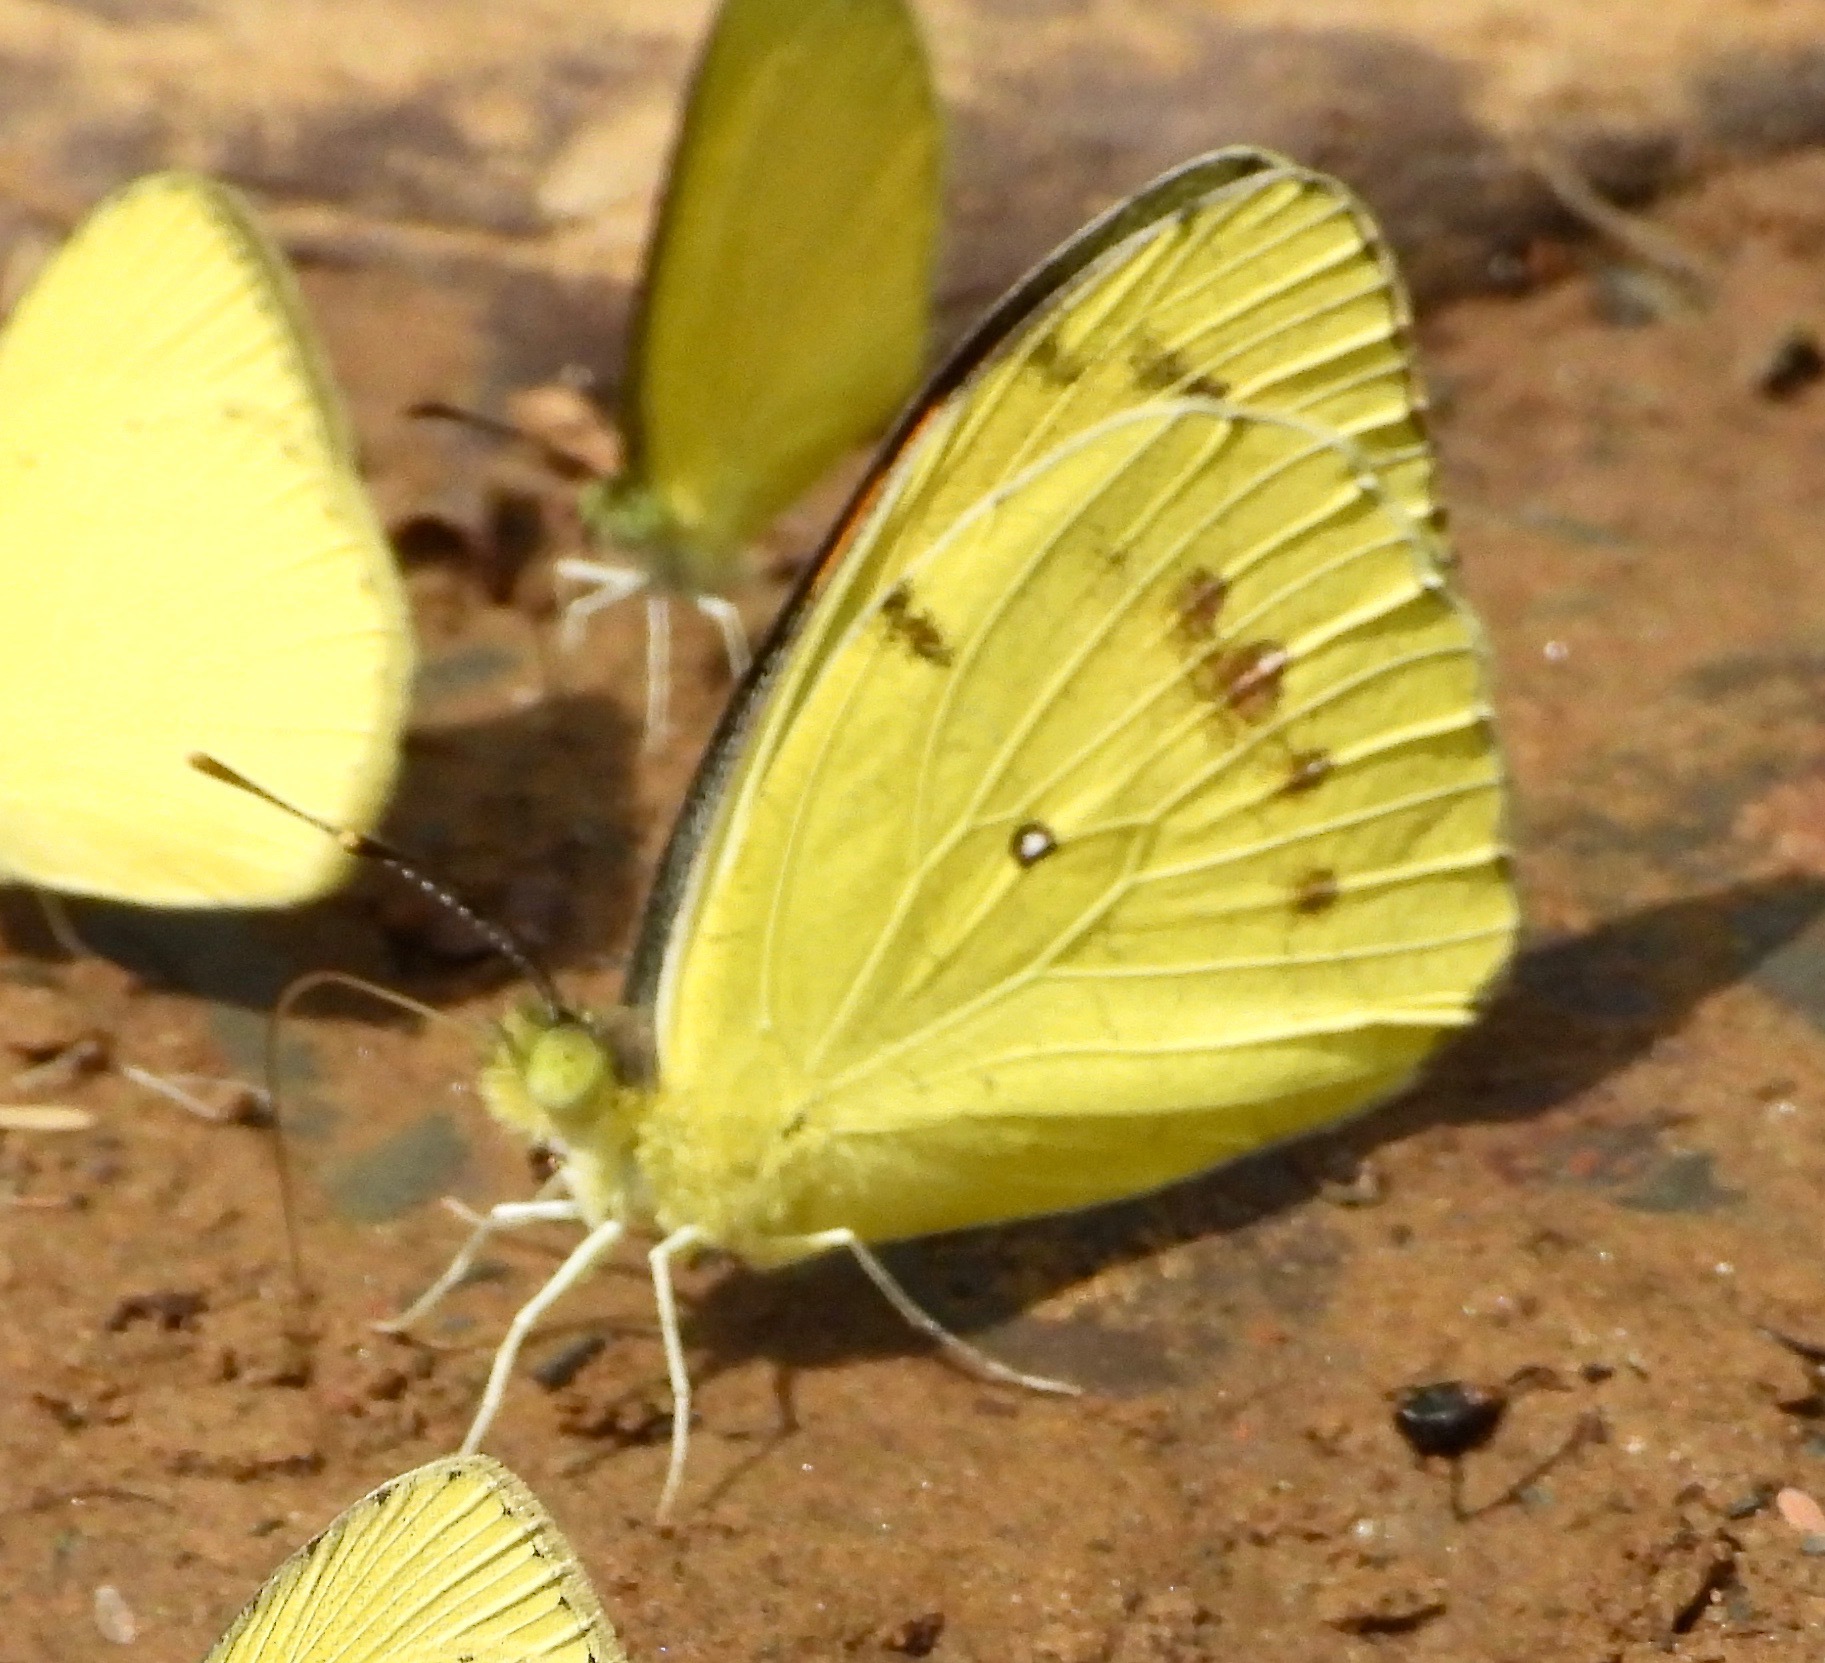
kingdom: Animalia
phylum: Arthropoda
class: Insecta
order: Lepidoptera
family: Pieridae
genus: Ixias
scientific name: Ixias pyrene
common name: Yellow orange tip
